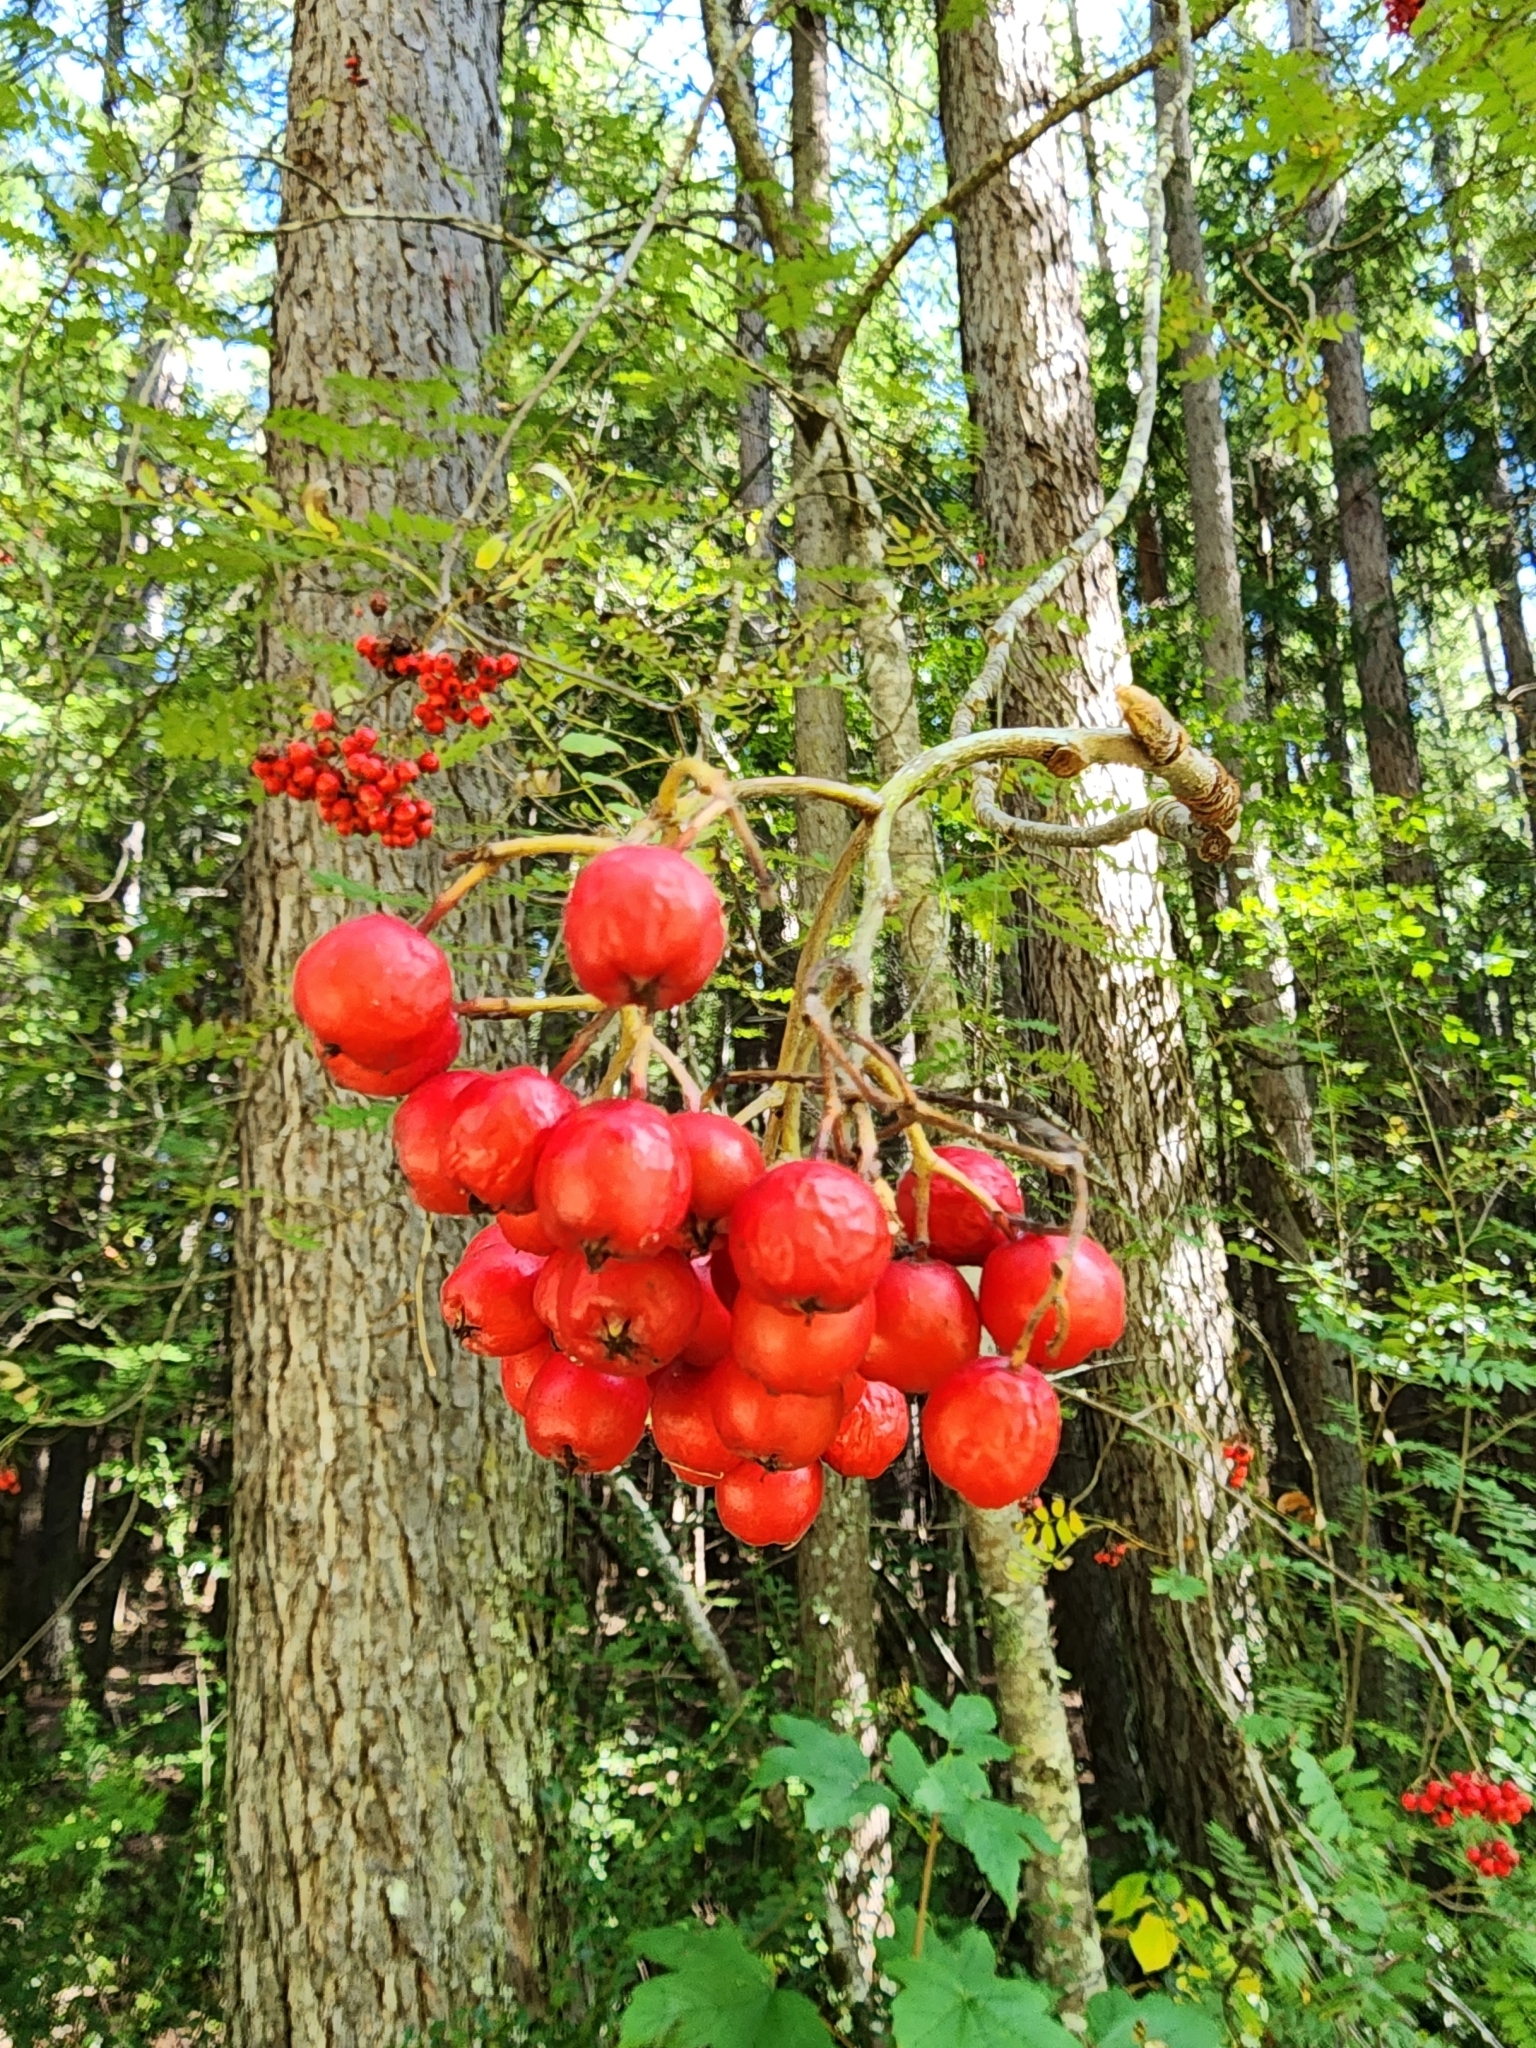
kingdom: Plantae
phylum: Tracheophyta
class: Magnoliopsida
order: Rosales
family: Rosaceae
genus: Sorbus
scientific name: Sorbus aucuparia
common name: Rowan
